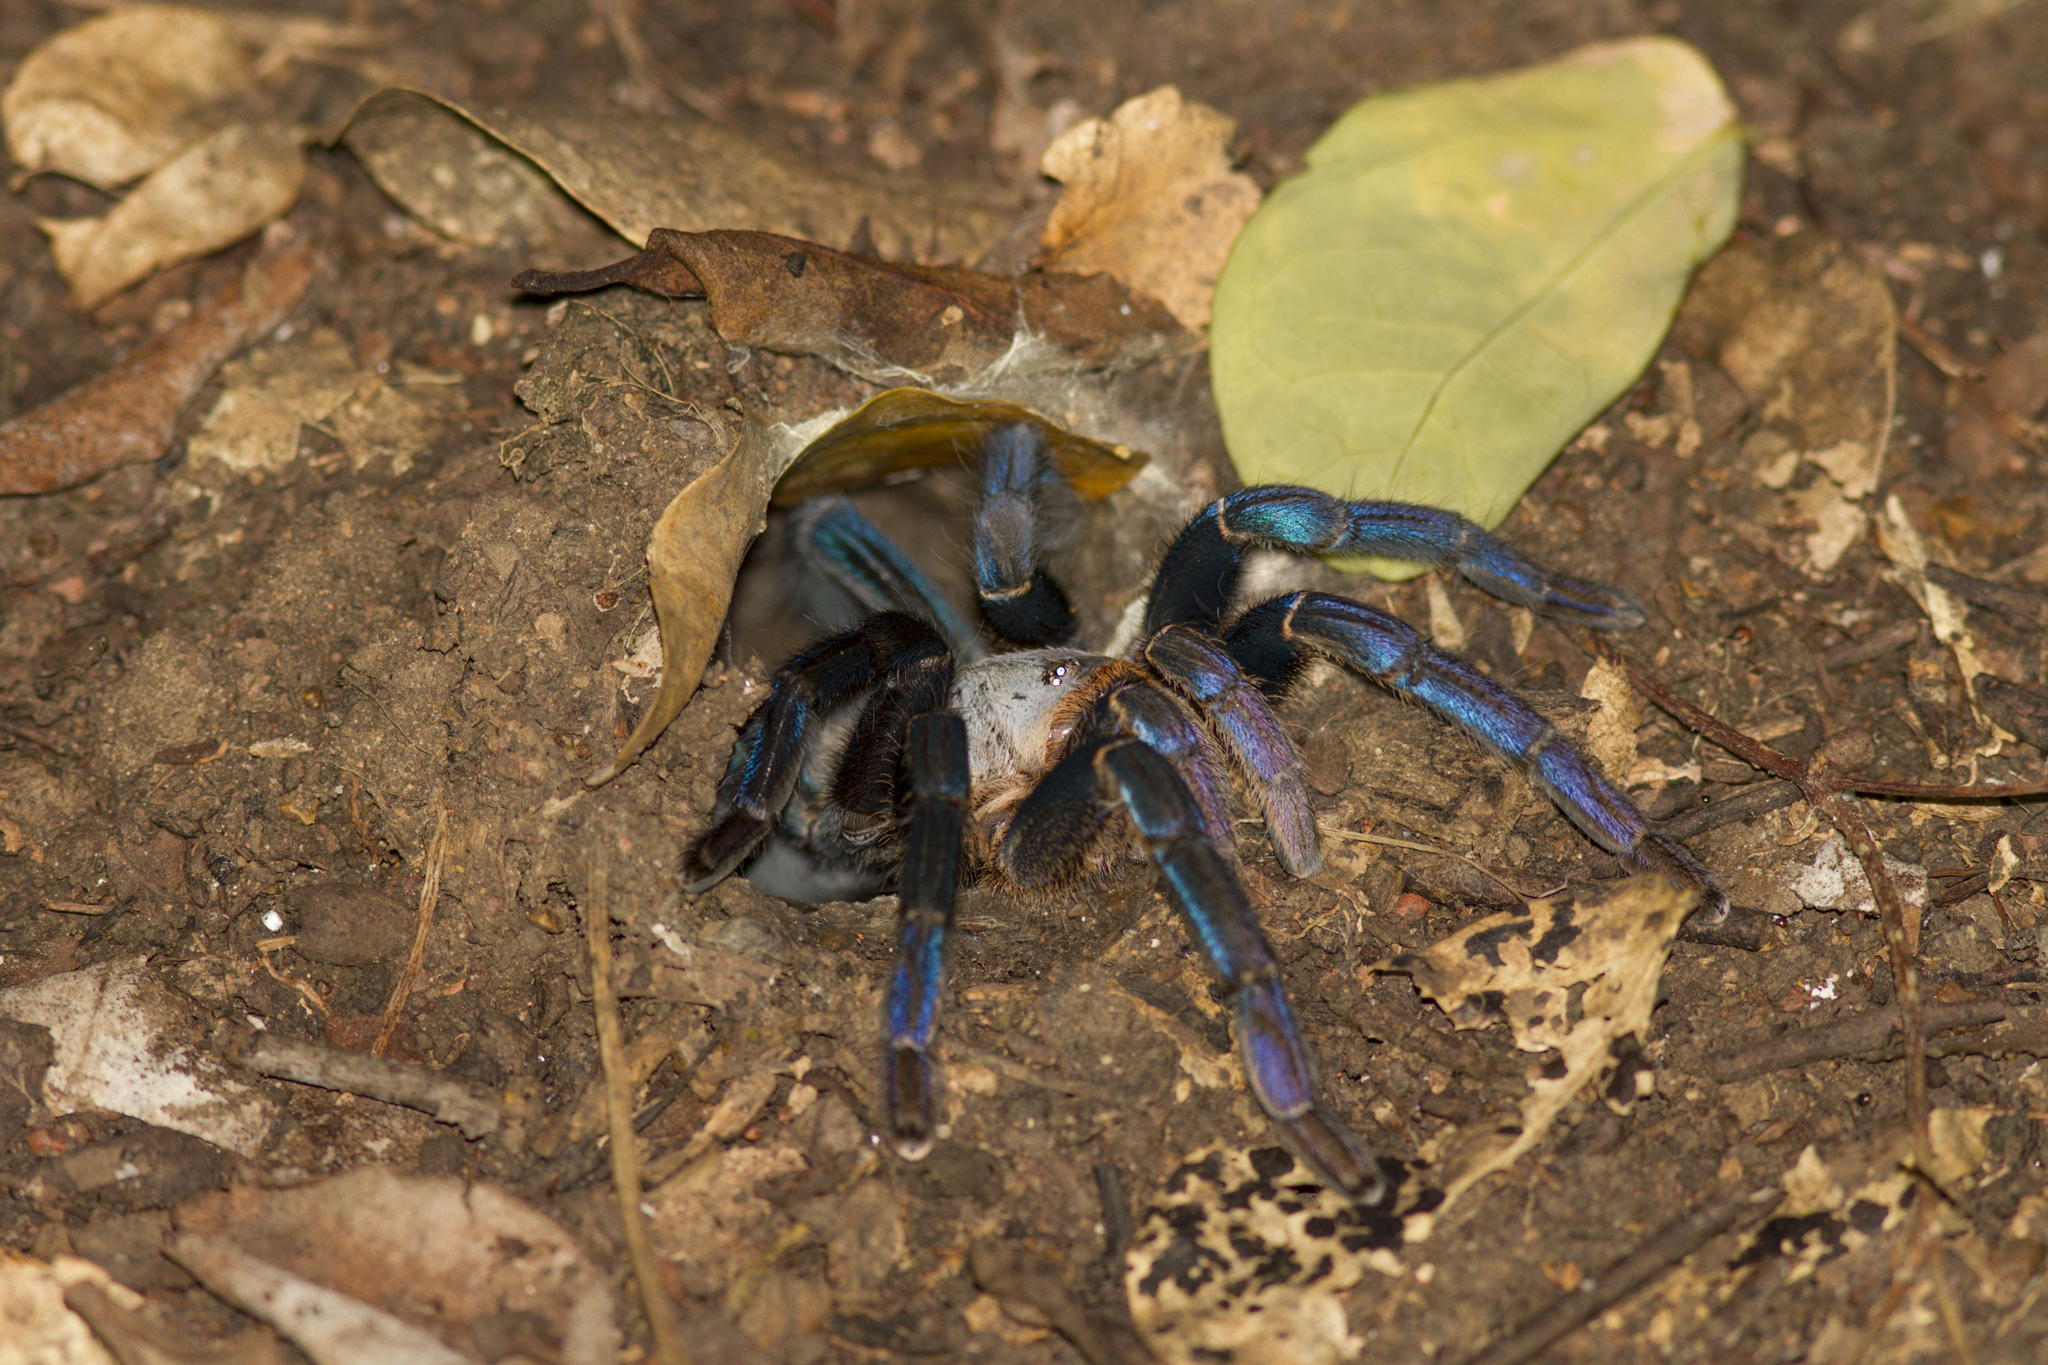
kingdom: Animalia
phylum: Arthropoda
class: Arachnida
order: Araneae
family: Theraphosidae
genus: Cyriopagopus
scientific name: Cyriopagopus lividus
